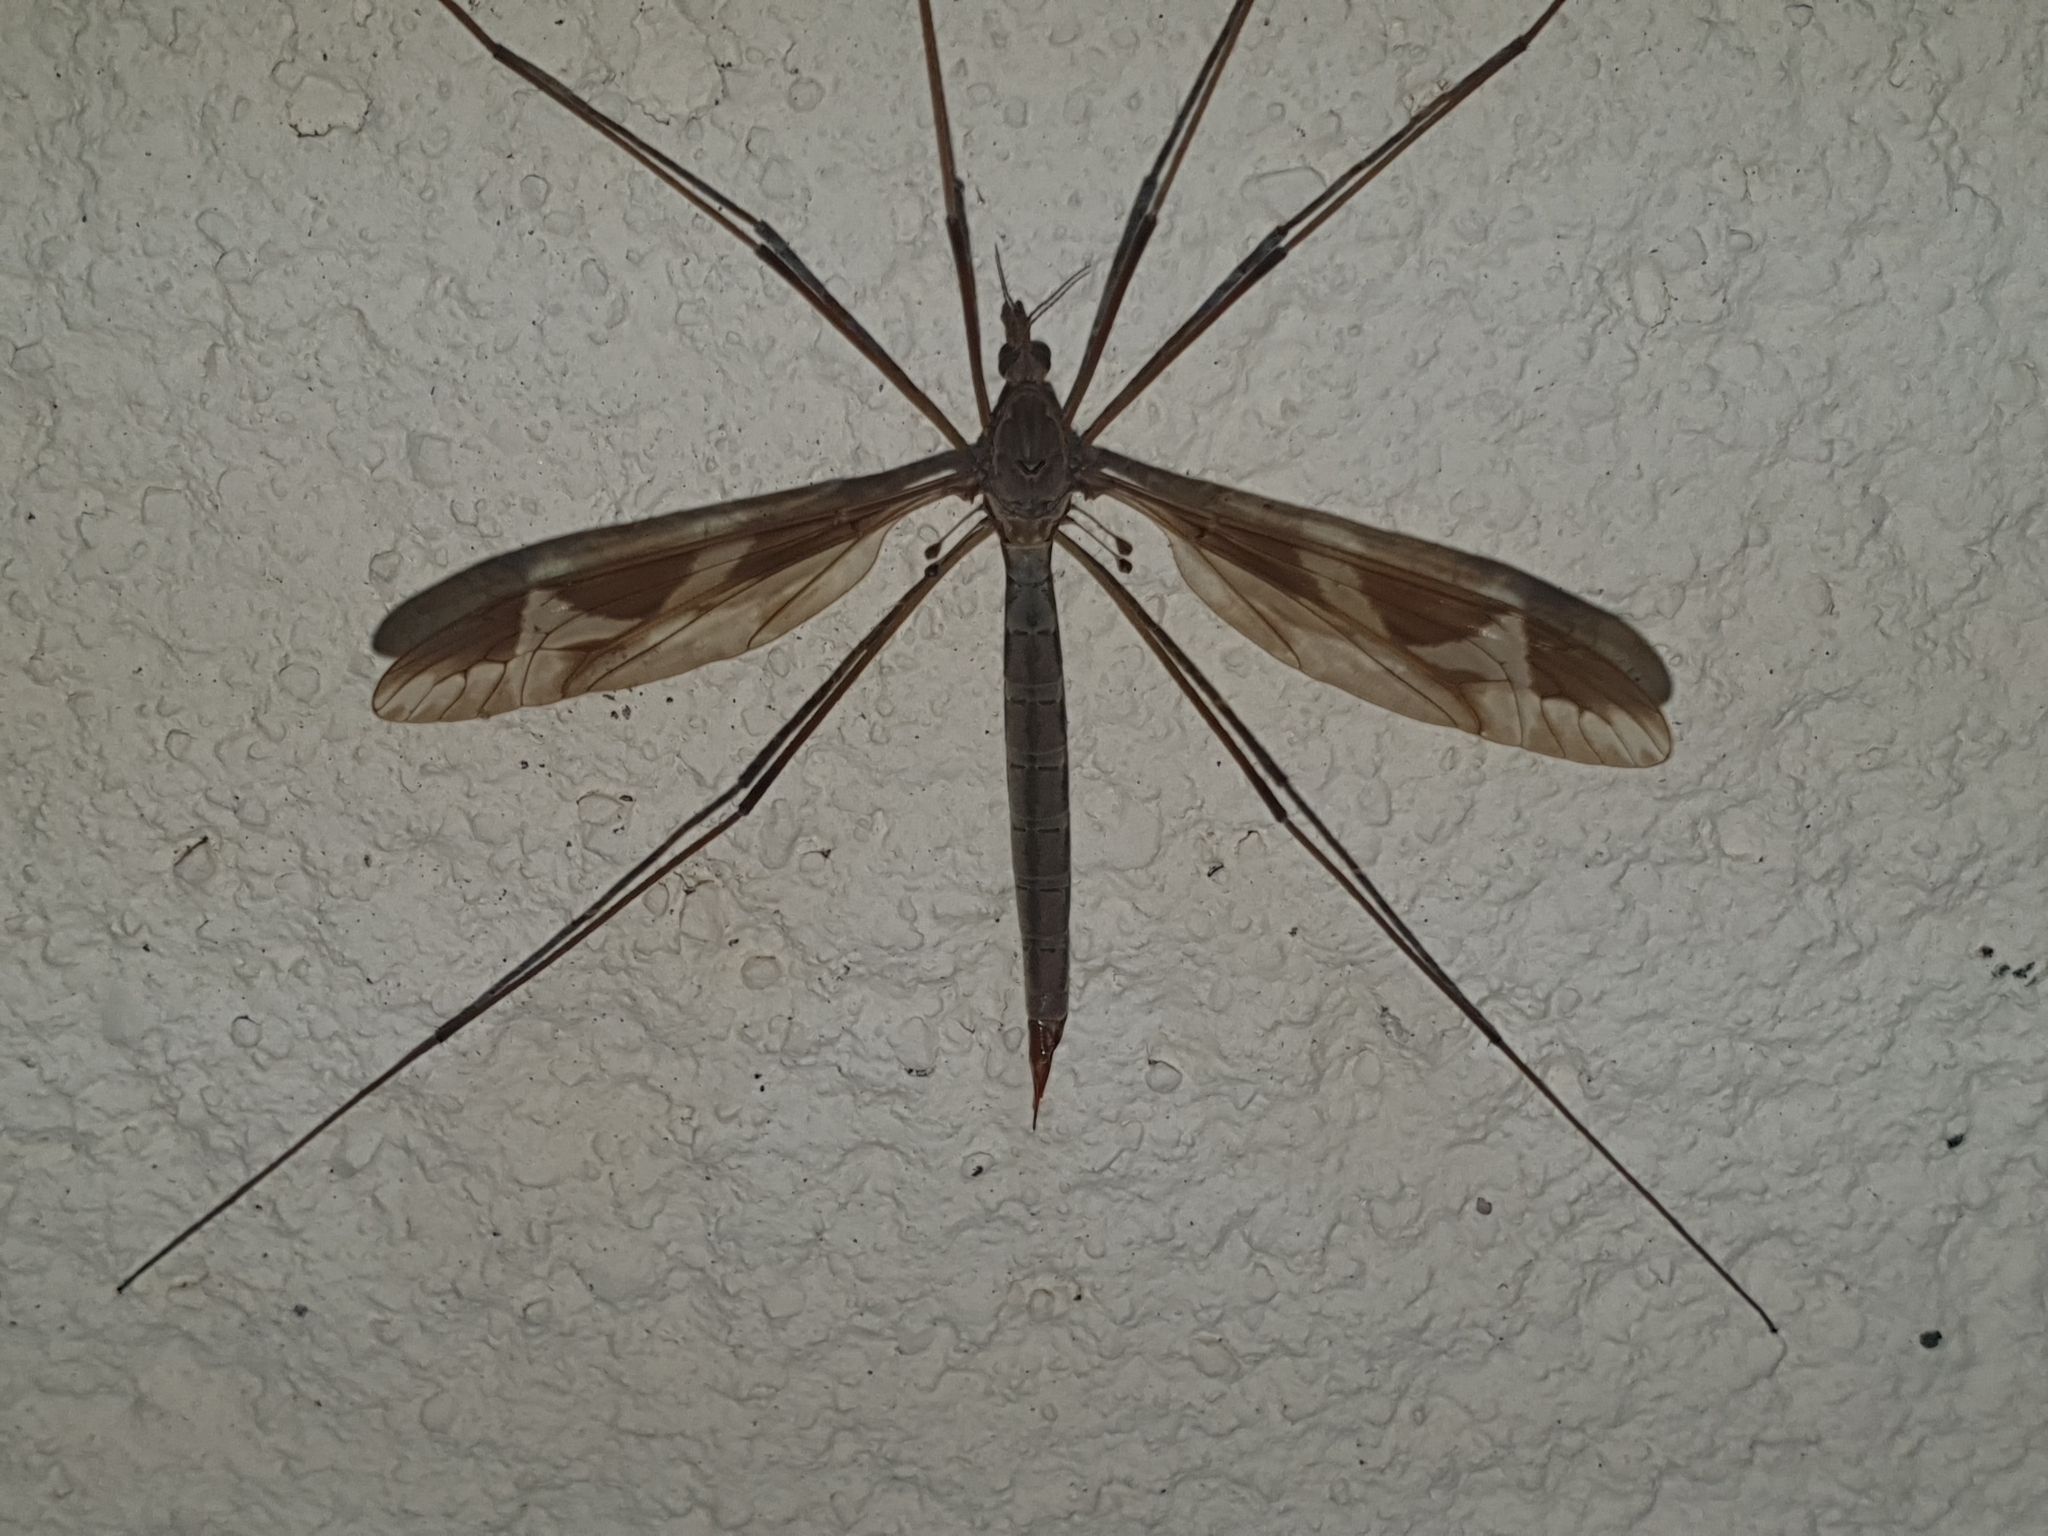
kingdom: Animalia
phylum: Arthropoda
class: Insecta
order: Diptera
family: Tipulidae
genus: Tipula
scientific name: Tipula maxima
